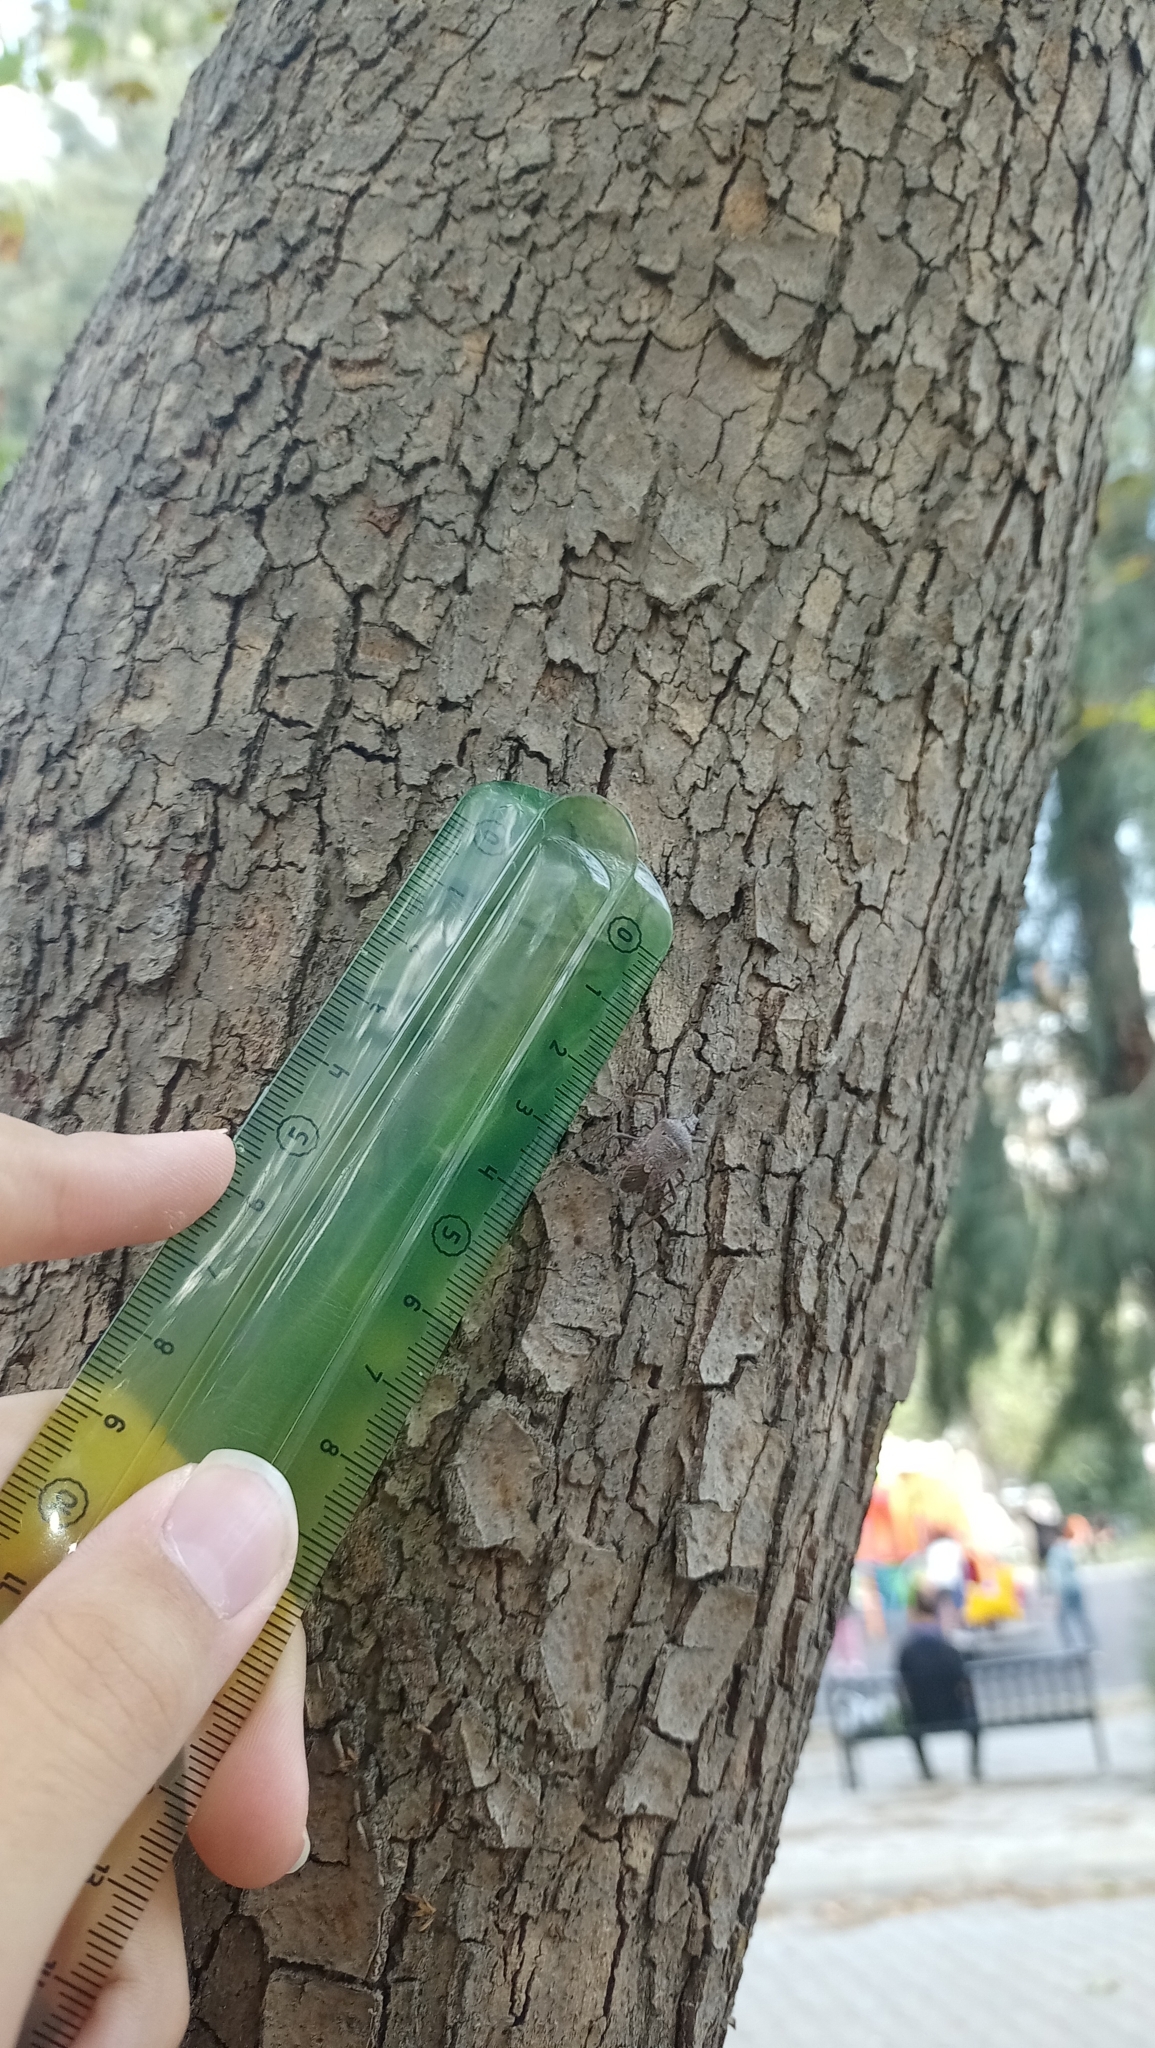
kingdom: Animalia
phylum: Arthropoda
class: Insecta
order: Hemiptera
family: Pentatomidae
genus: Apodiphus
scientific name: Apodiphus
